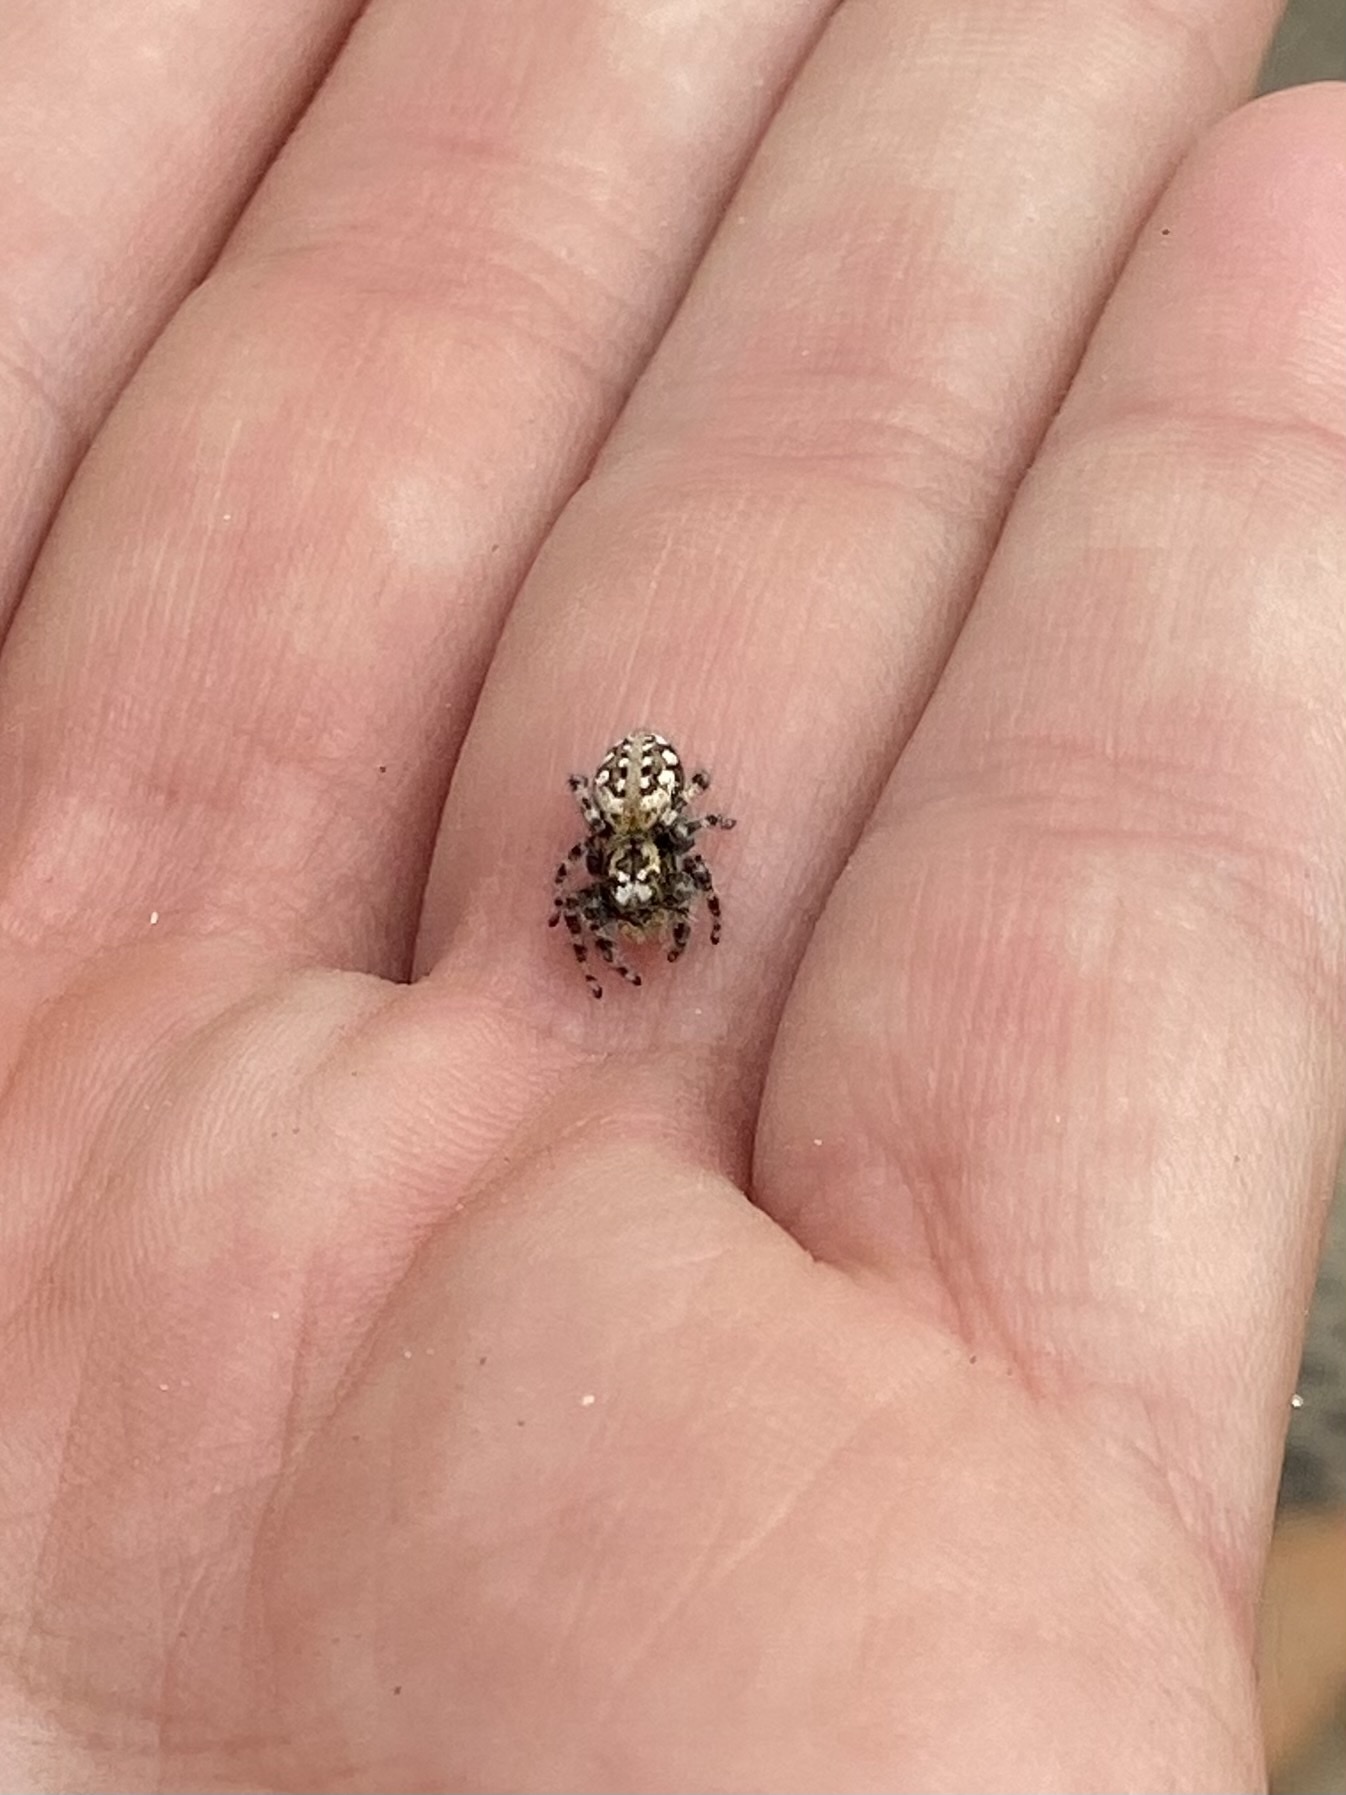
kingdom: Animalia
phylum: Arthropoda
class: Arachnida
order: Araneae
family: Salticidae
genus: Terralonus
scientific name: Terralonus californicus
